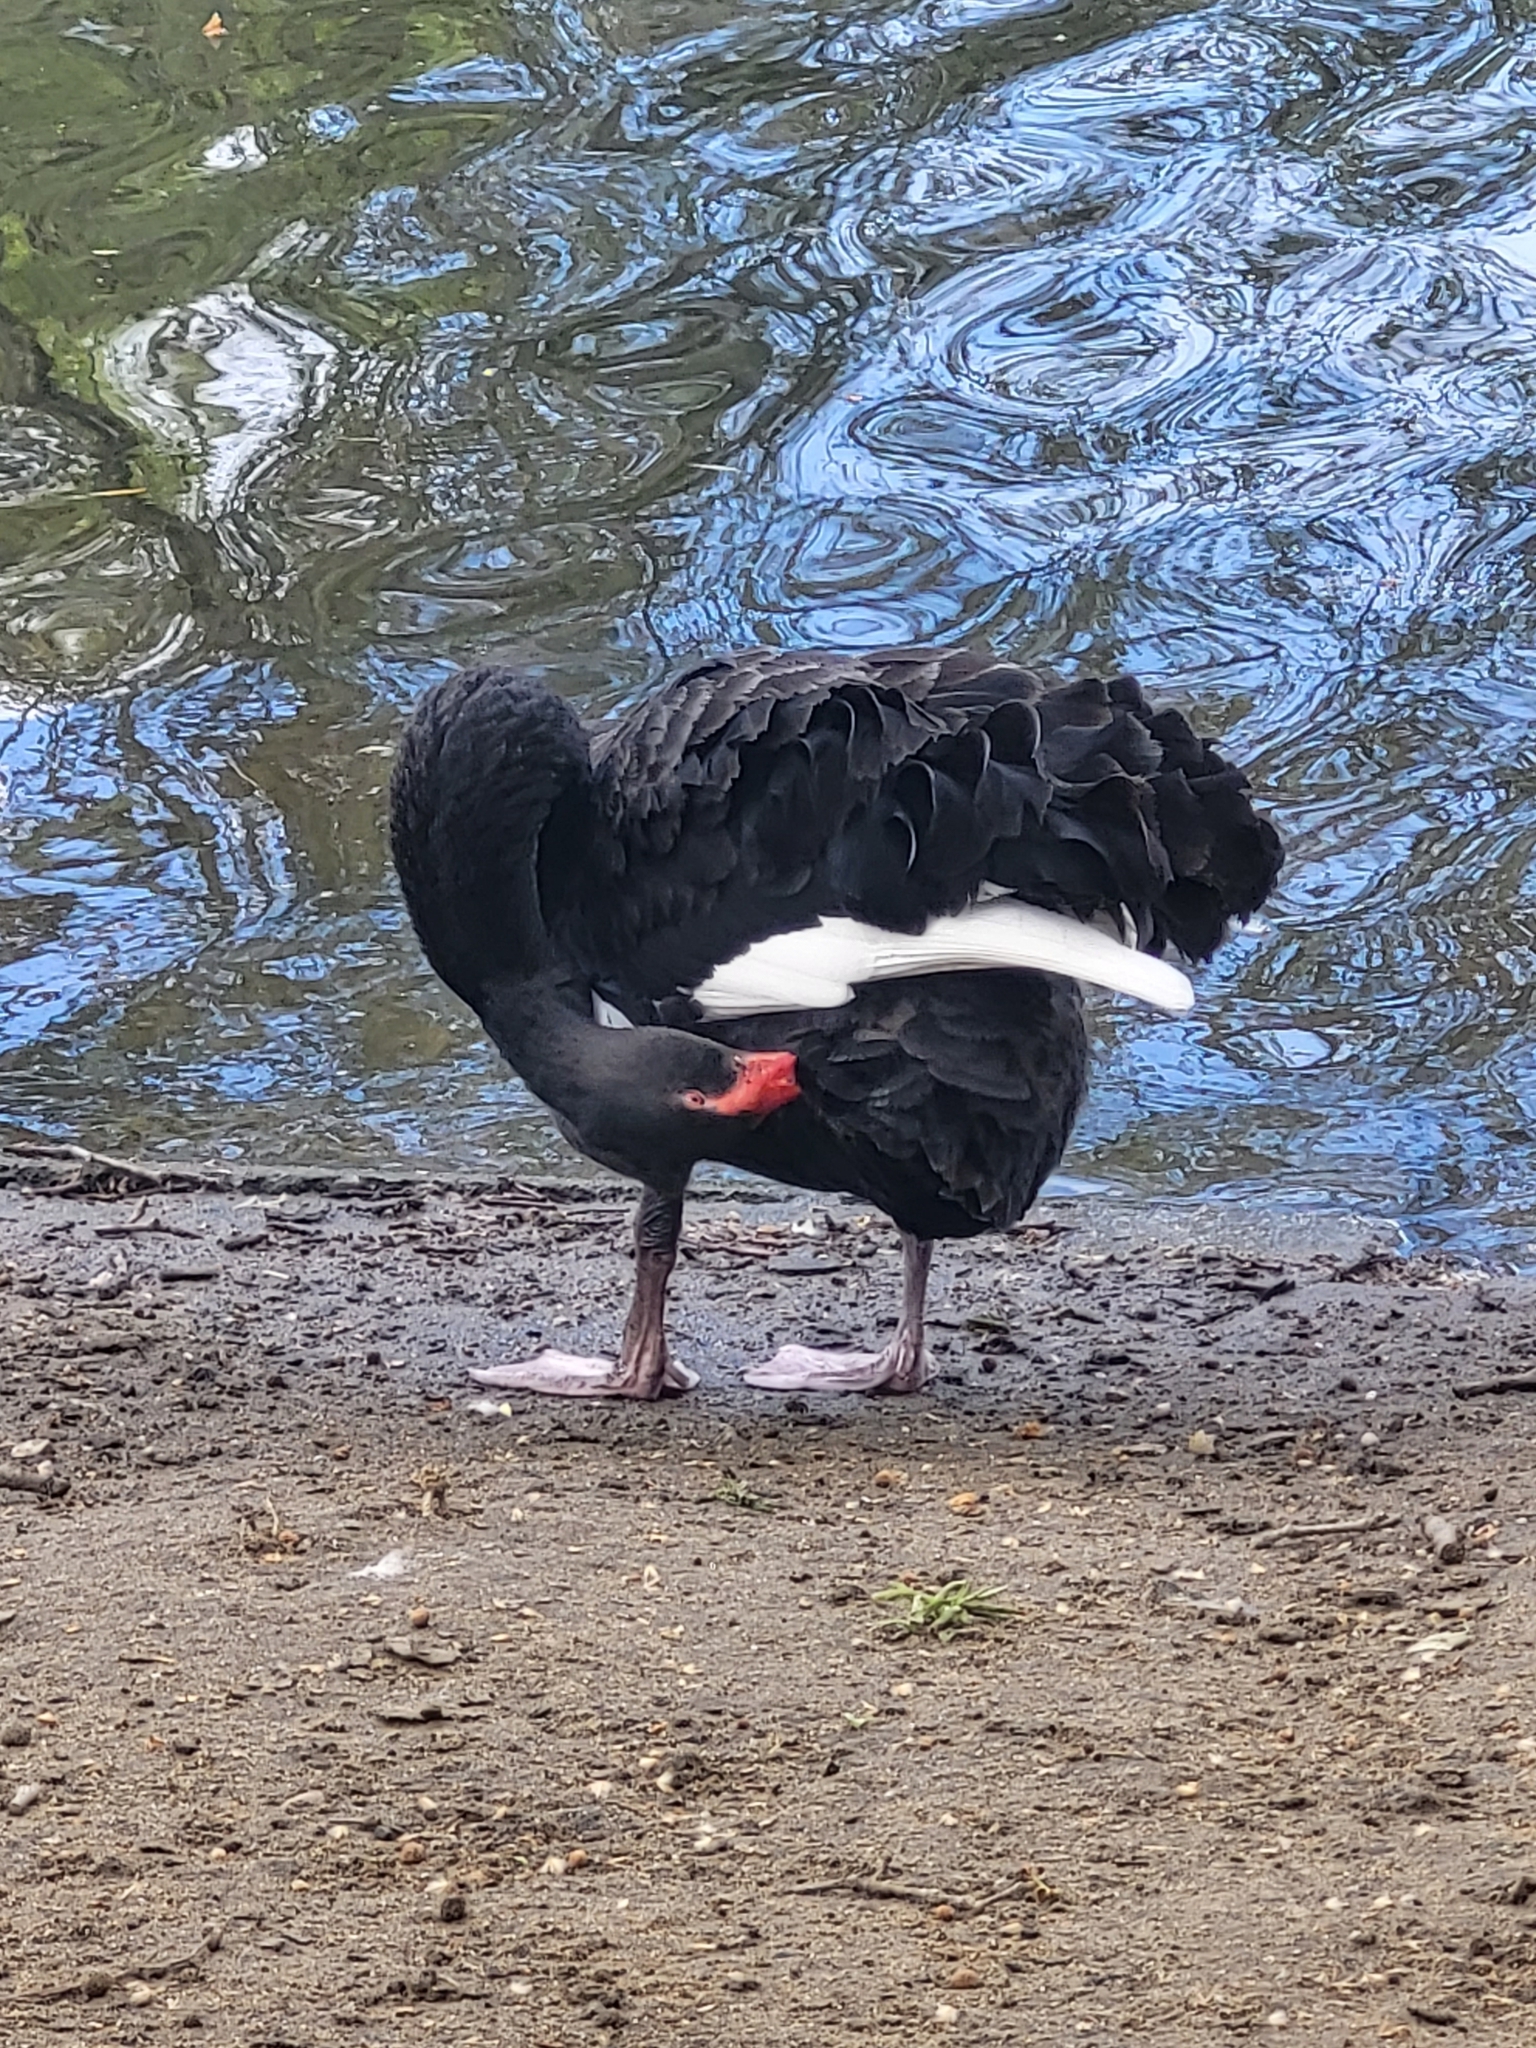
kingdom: Animalia
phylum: Chordata
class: Aves
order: Anseriformes
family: Anatidae
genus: Cygnus
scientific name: Cygnus atratus
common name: Black swan
